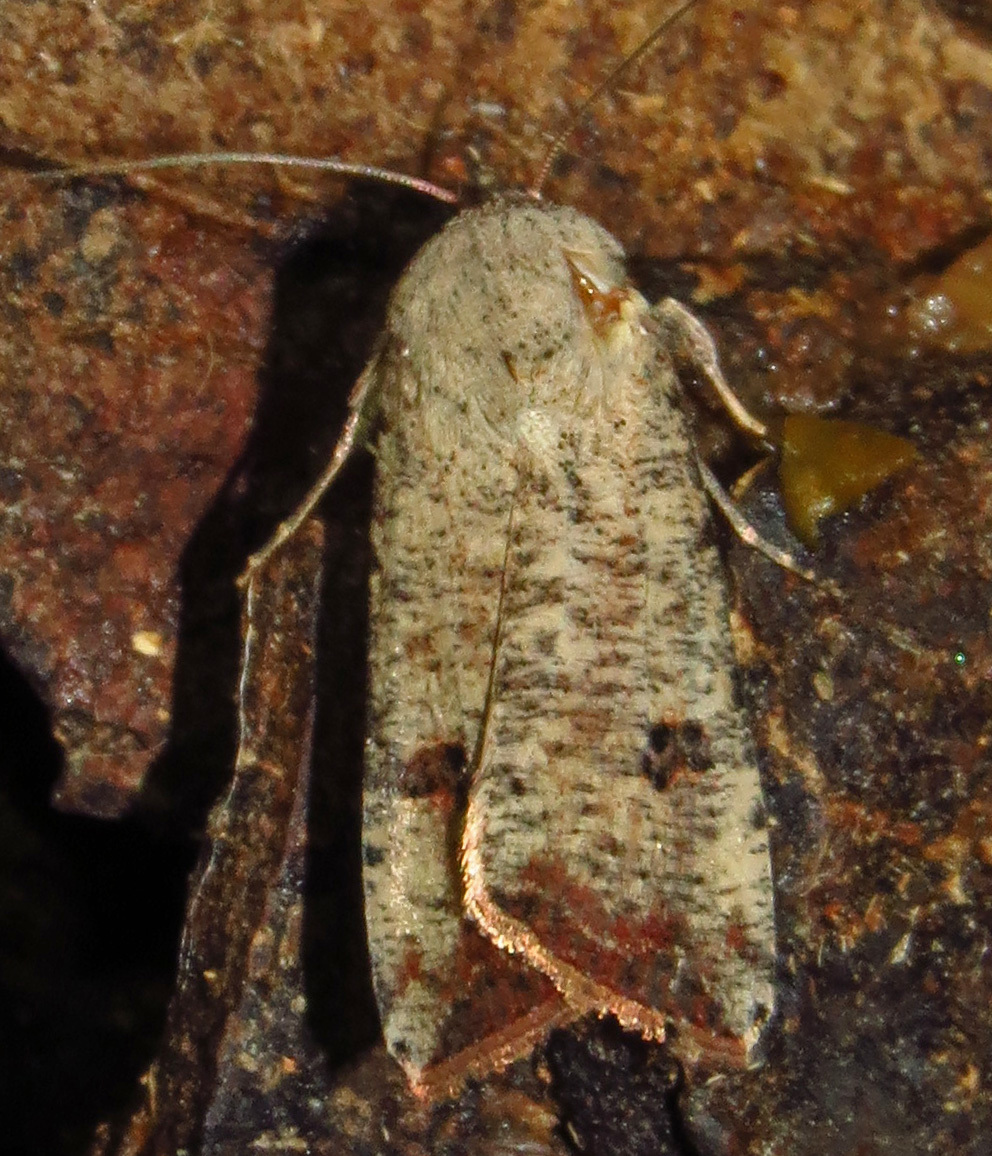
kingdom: Animalia
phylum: Arthropoda
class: Insecta
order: Lepidoptera
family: Noctuidae
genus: Anicla
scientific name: Anicla infecta
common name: Green cutworm
